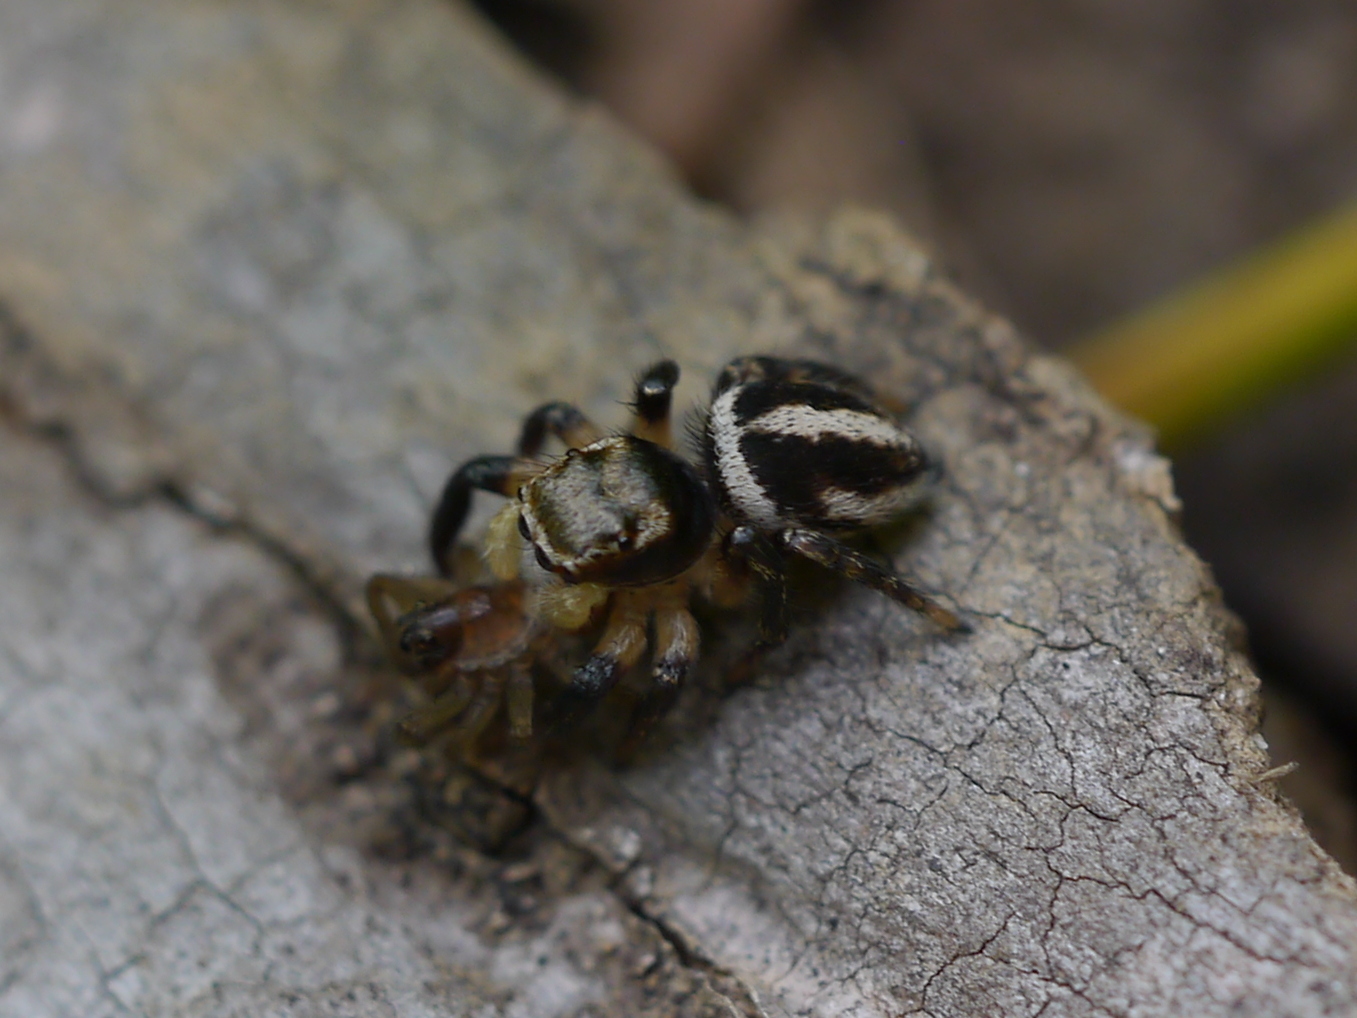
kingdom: Animalia
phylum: Arthropoda
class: Arachnida
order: Araneae
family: Salticidae
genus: Habronattus
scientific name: Habronattus decorus
